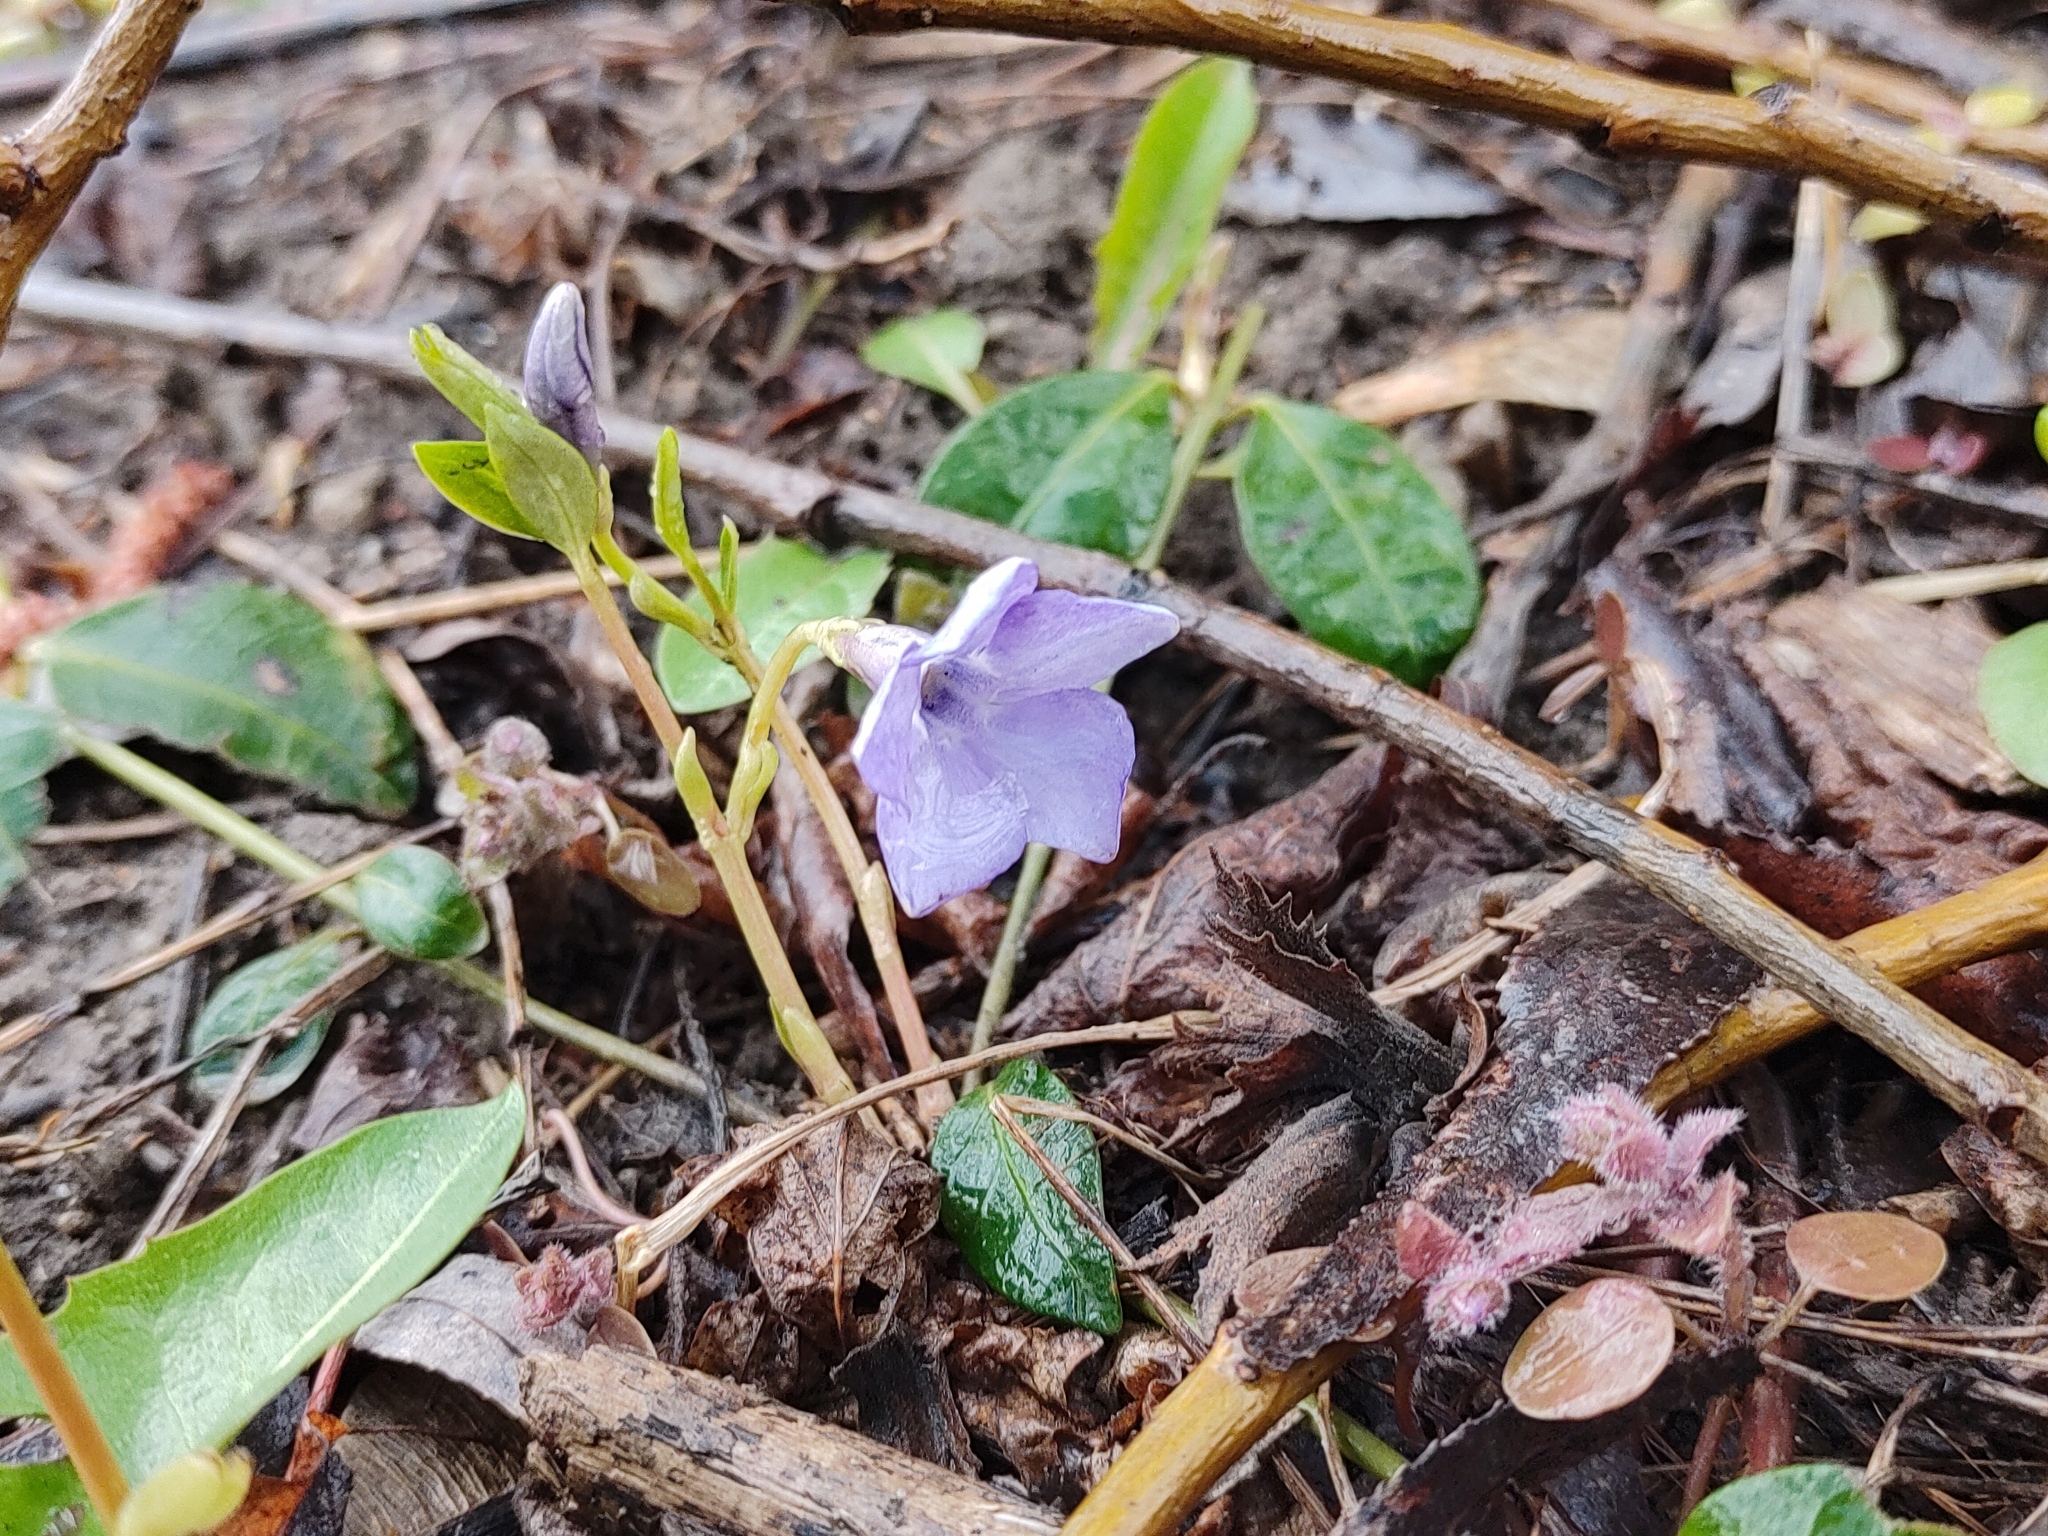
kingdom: Plantae
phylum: Tracheophyta
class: Magnoliopsida
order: Gentianales
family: Apocynaceae
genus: Vinca
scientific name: Vinca minor
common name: Lesser periwinkle
